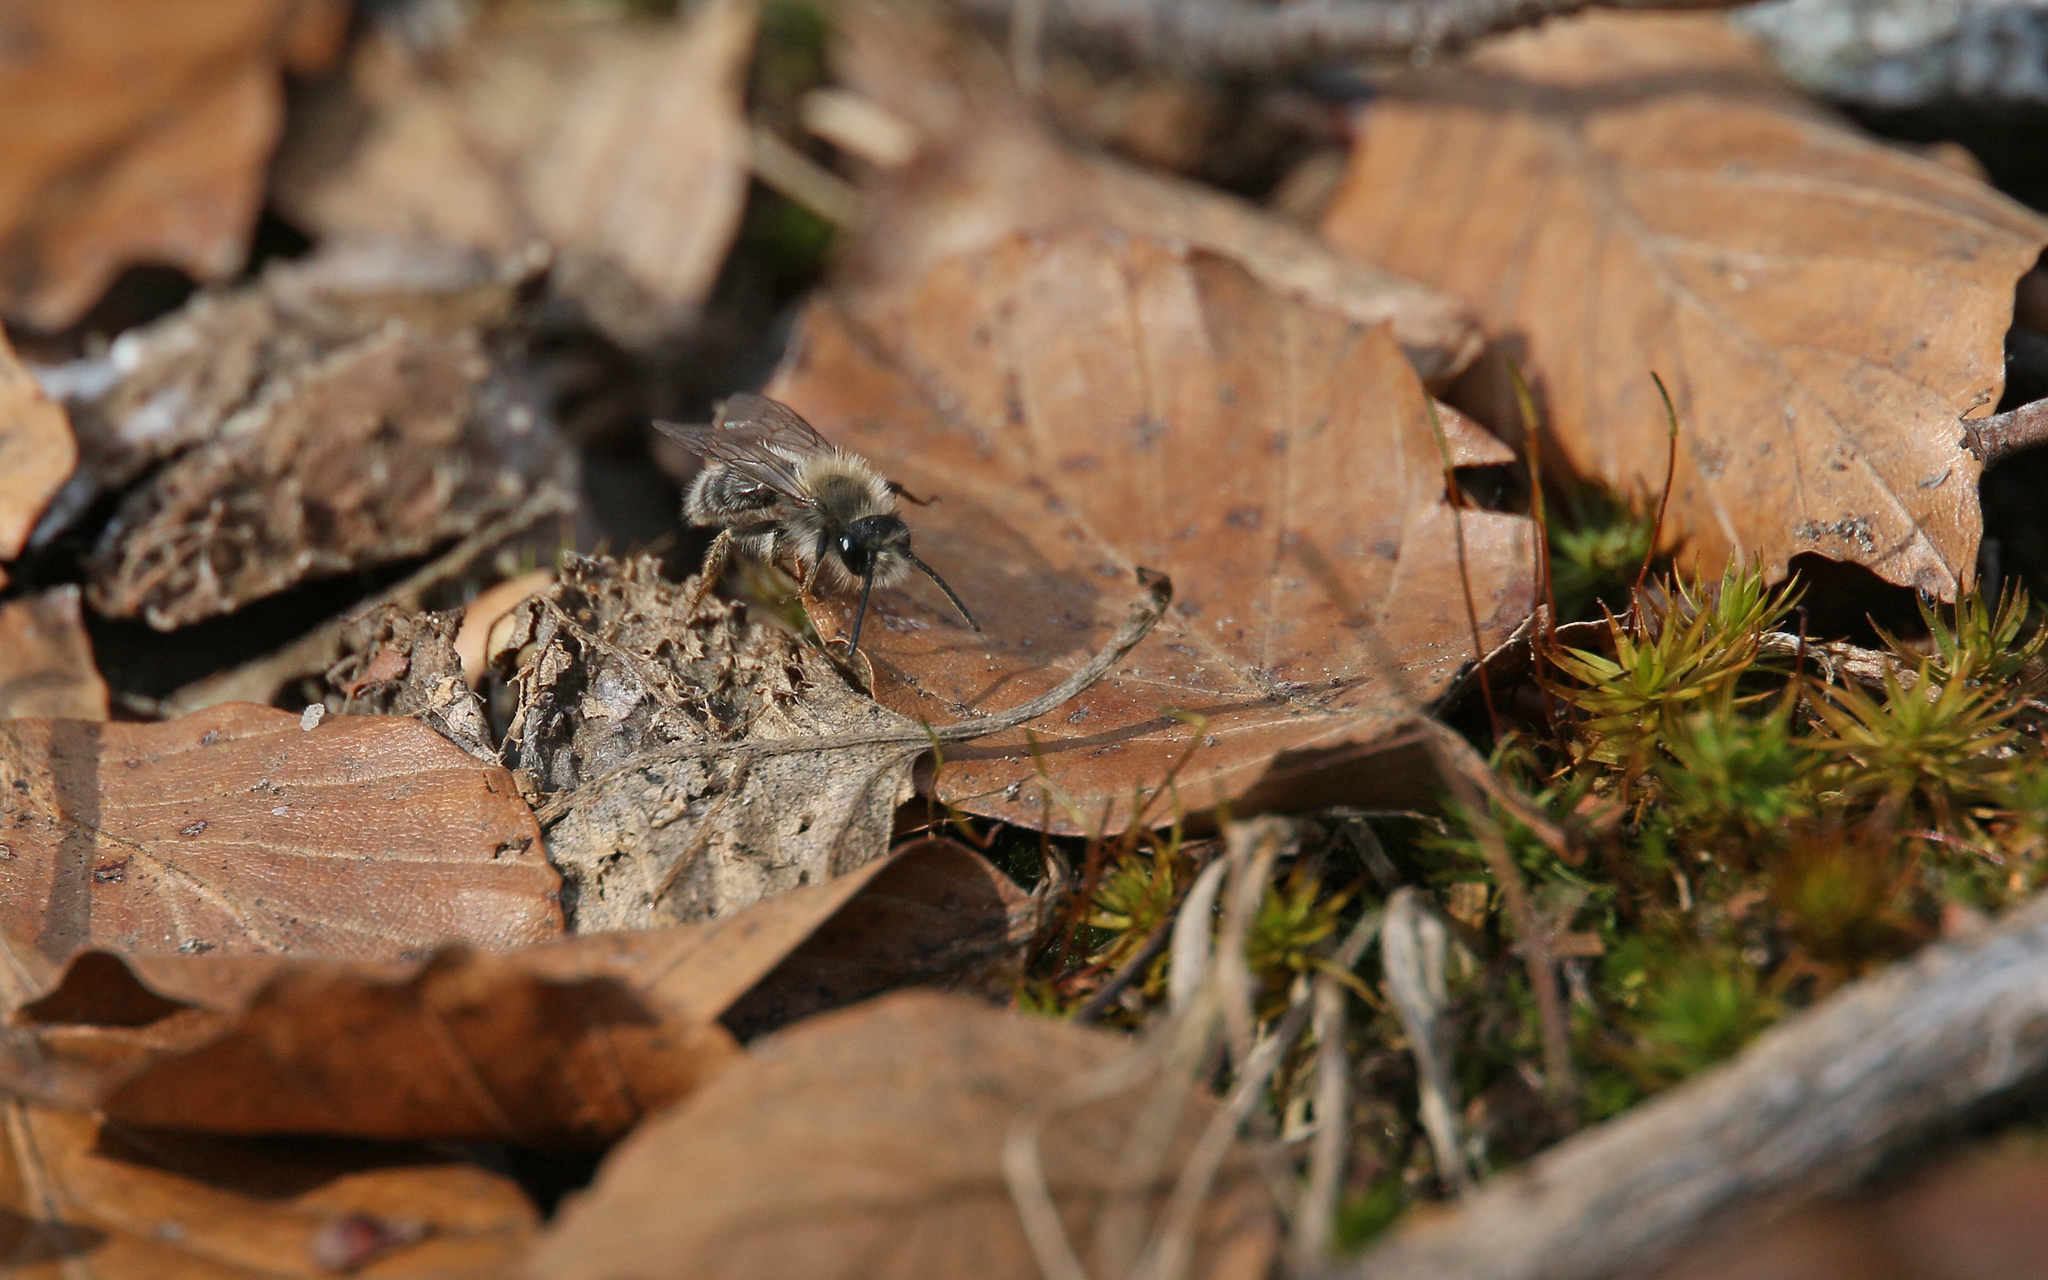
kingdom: Animalia
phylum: Arthropoda
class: Insecta
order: Hymenoptera
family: Andrenidae
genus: Andrena
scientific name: Andrena clarkella
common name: Clarke's mining bee
